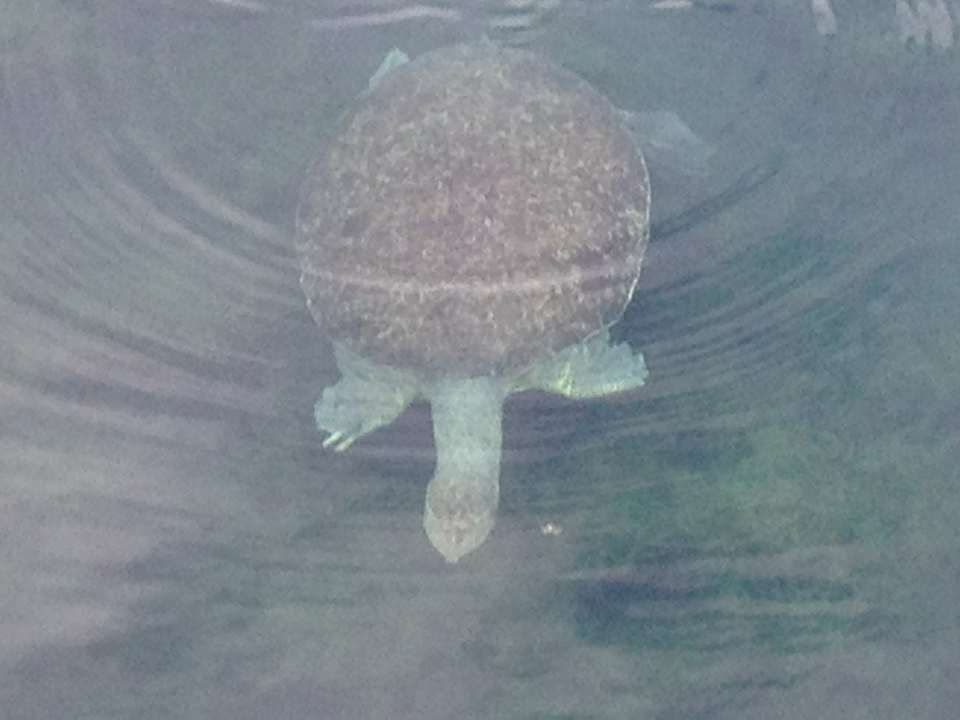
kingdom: Animalia
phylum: Chordata
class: Testudines
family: Trionychidae
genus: Apalone
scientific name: Apalone spinifera
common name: Spiny softshell turtle
